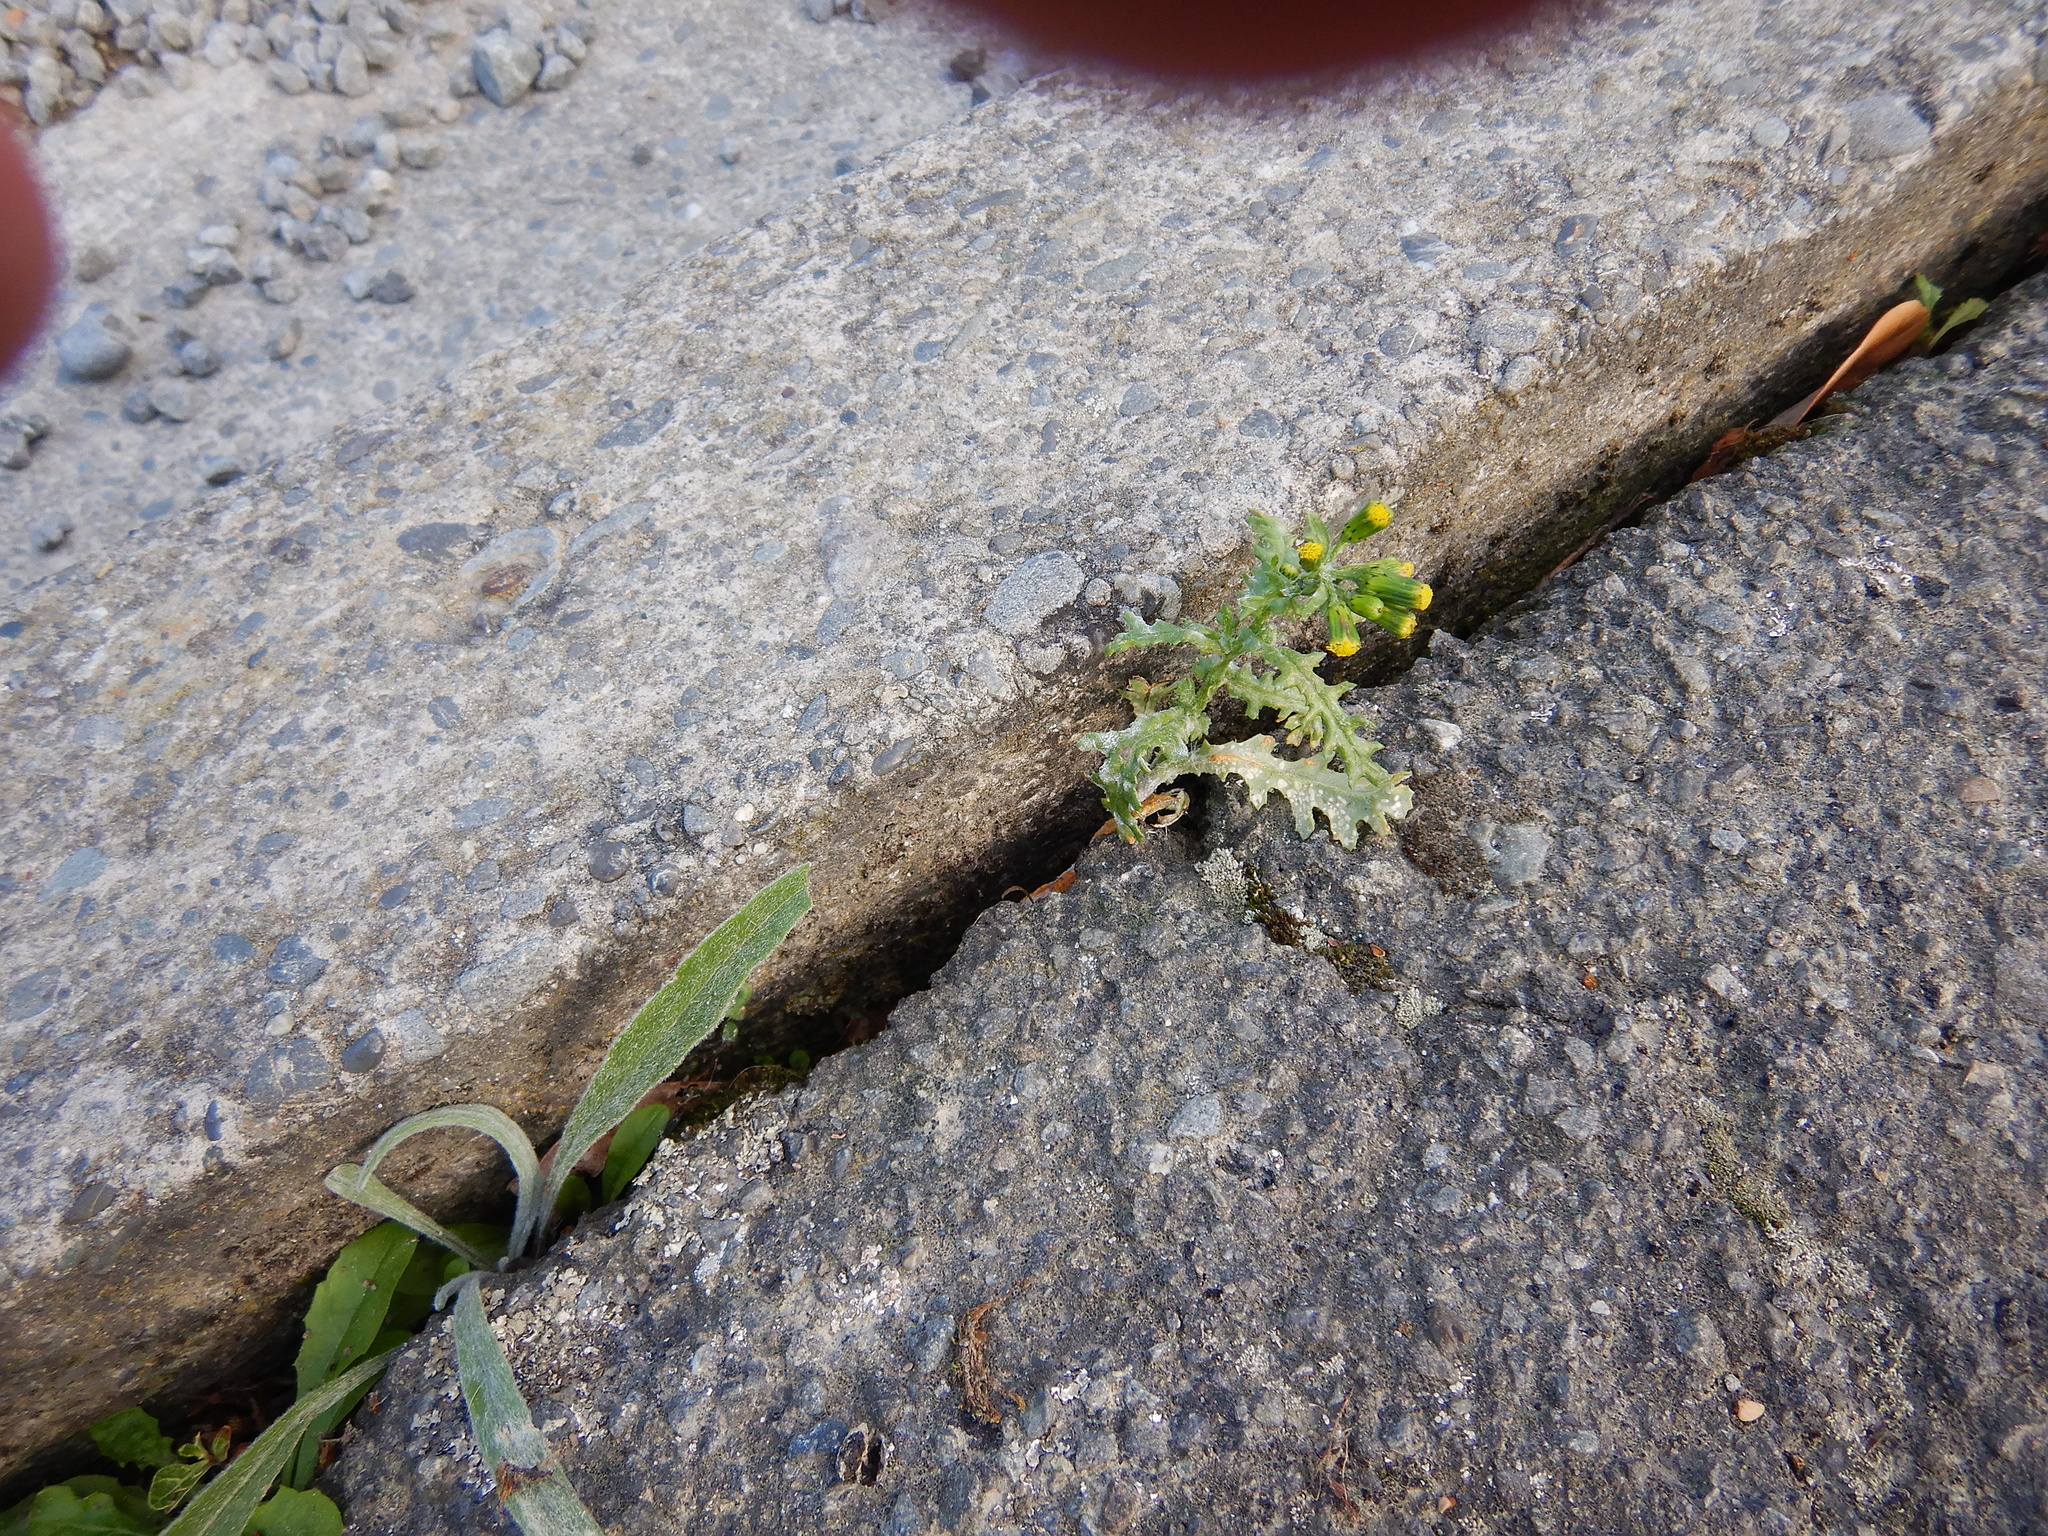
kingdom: Plantae
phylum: Tracheophyta
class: Magnoliopsida
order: Asterales
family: Asteraceae
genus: Senecio
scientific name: Senecio vulgaris
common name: Old-man-in-the-spring
